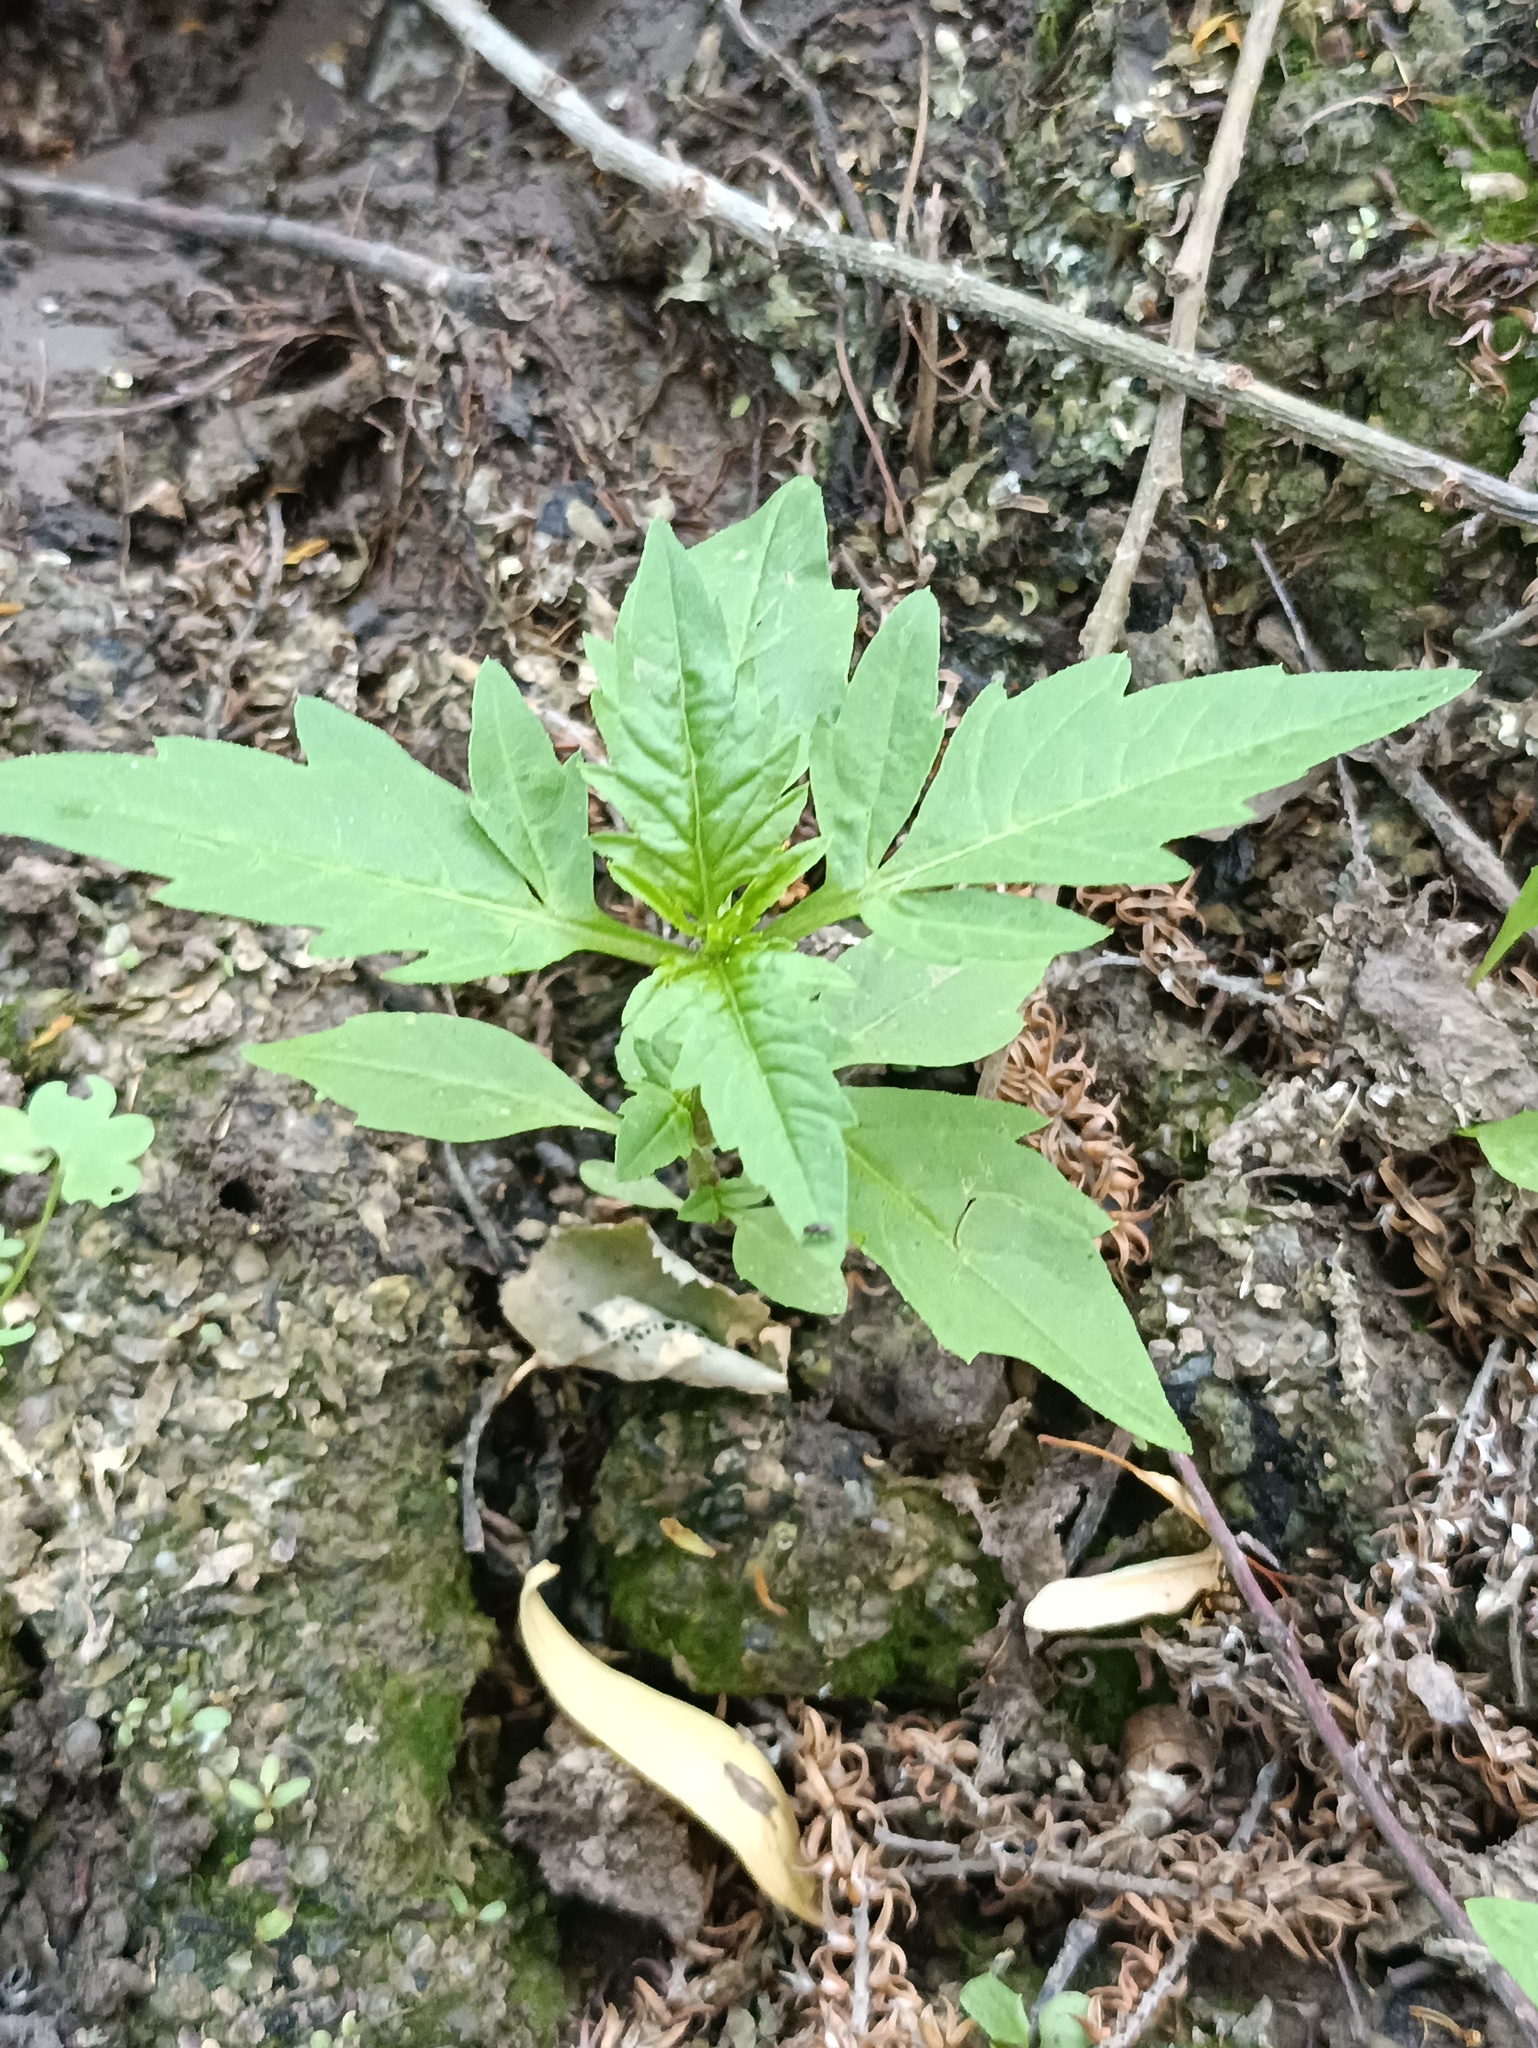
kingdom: Plantae
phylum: Tracheophyta
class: Magnoliopsida
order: Asterales
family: Asteraceae
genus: Bidens
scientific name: Bidens tripartita
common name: Trifid bur-marigold
